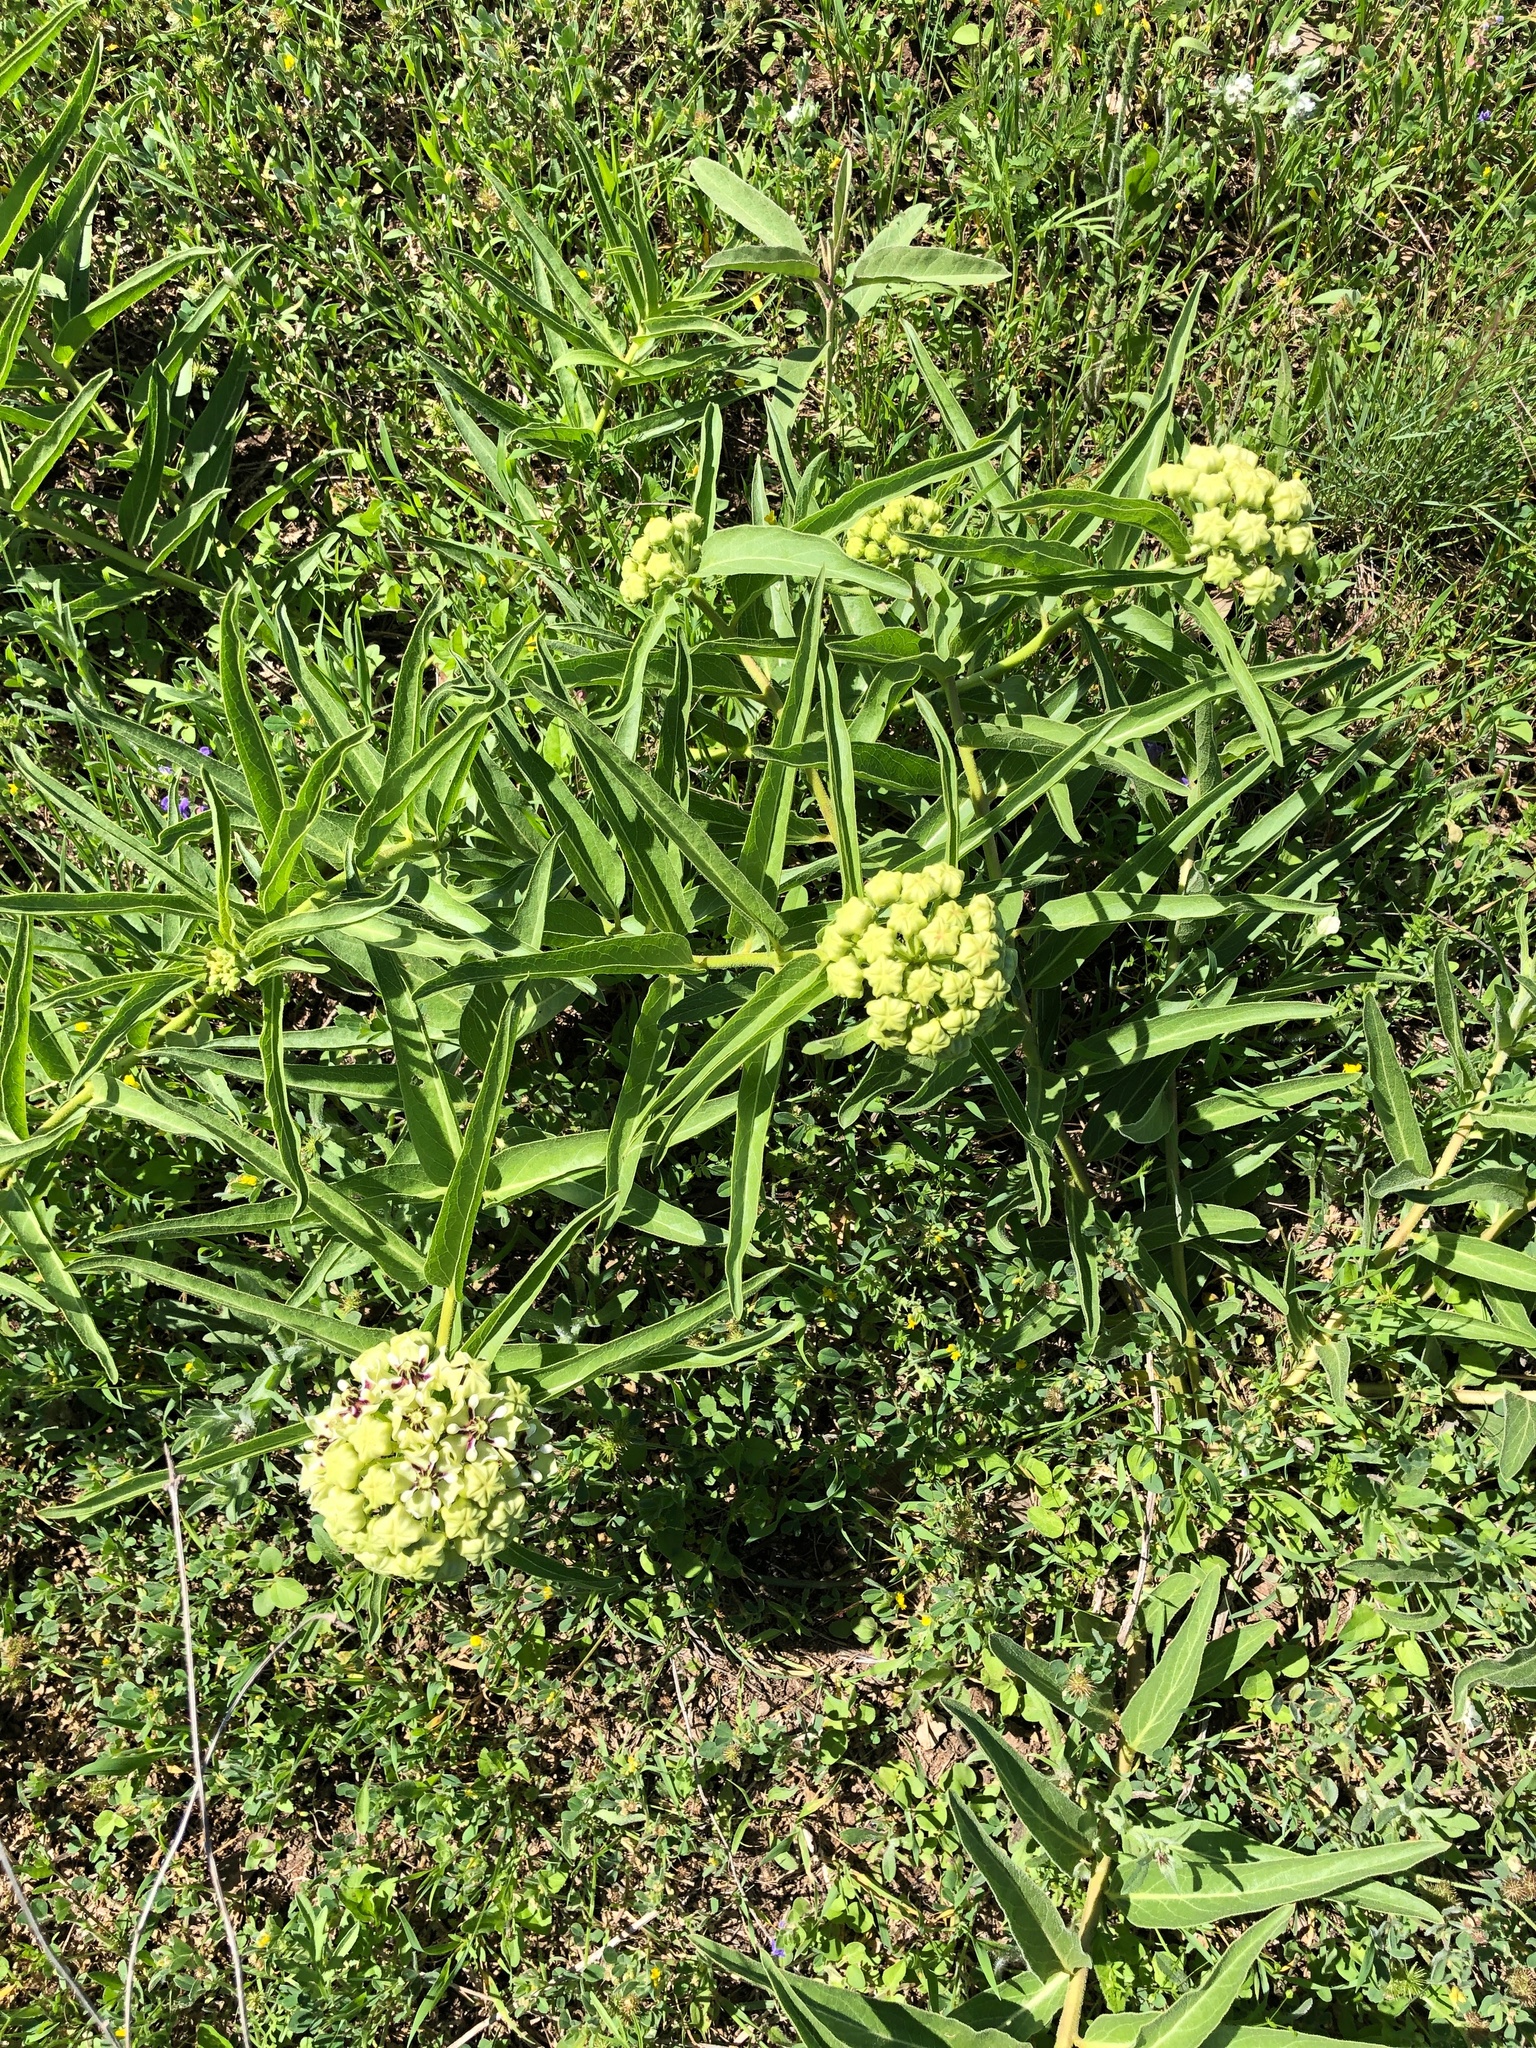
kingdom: Plantae
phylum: Tracheophyta
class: Magnoliopsida
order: Gentianales
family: Apocynaceae
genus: Asclepias
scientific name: Asclepias asperula
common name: Antelope horns
